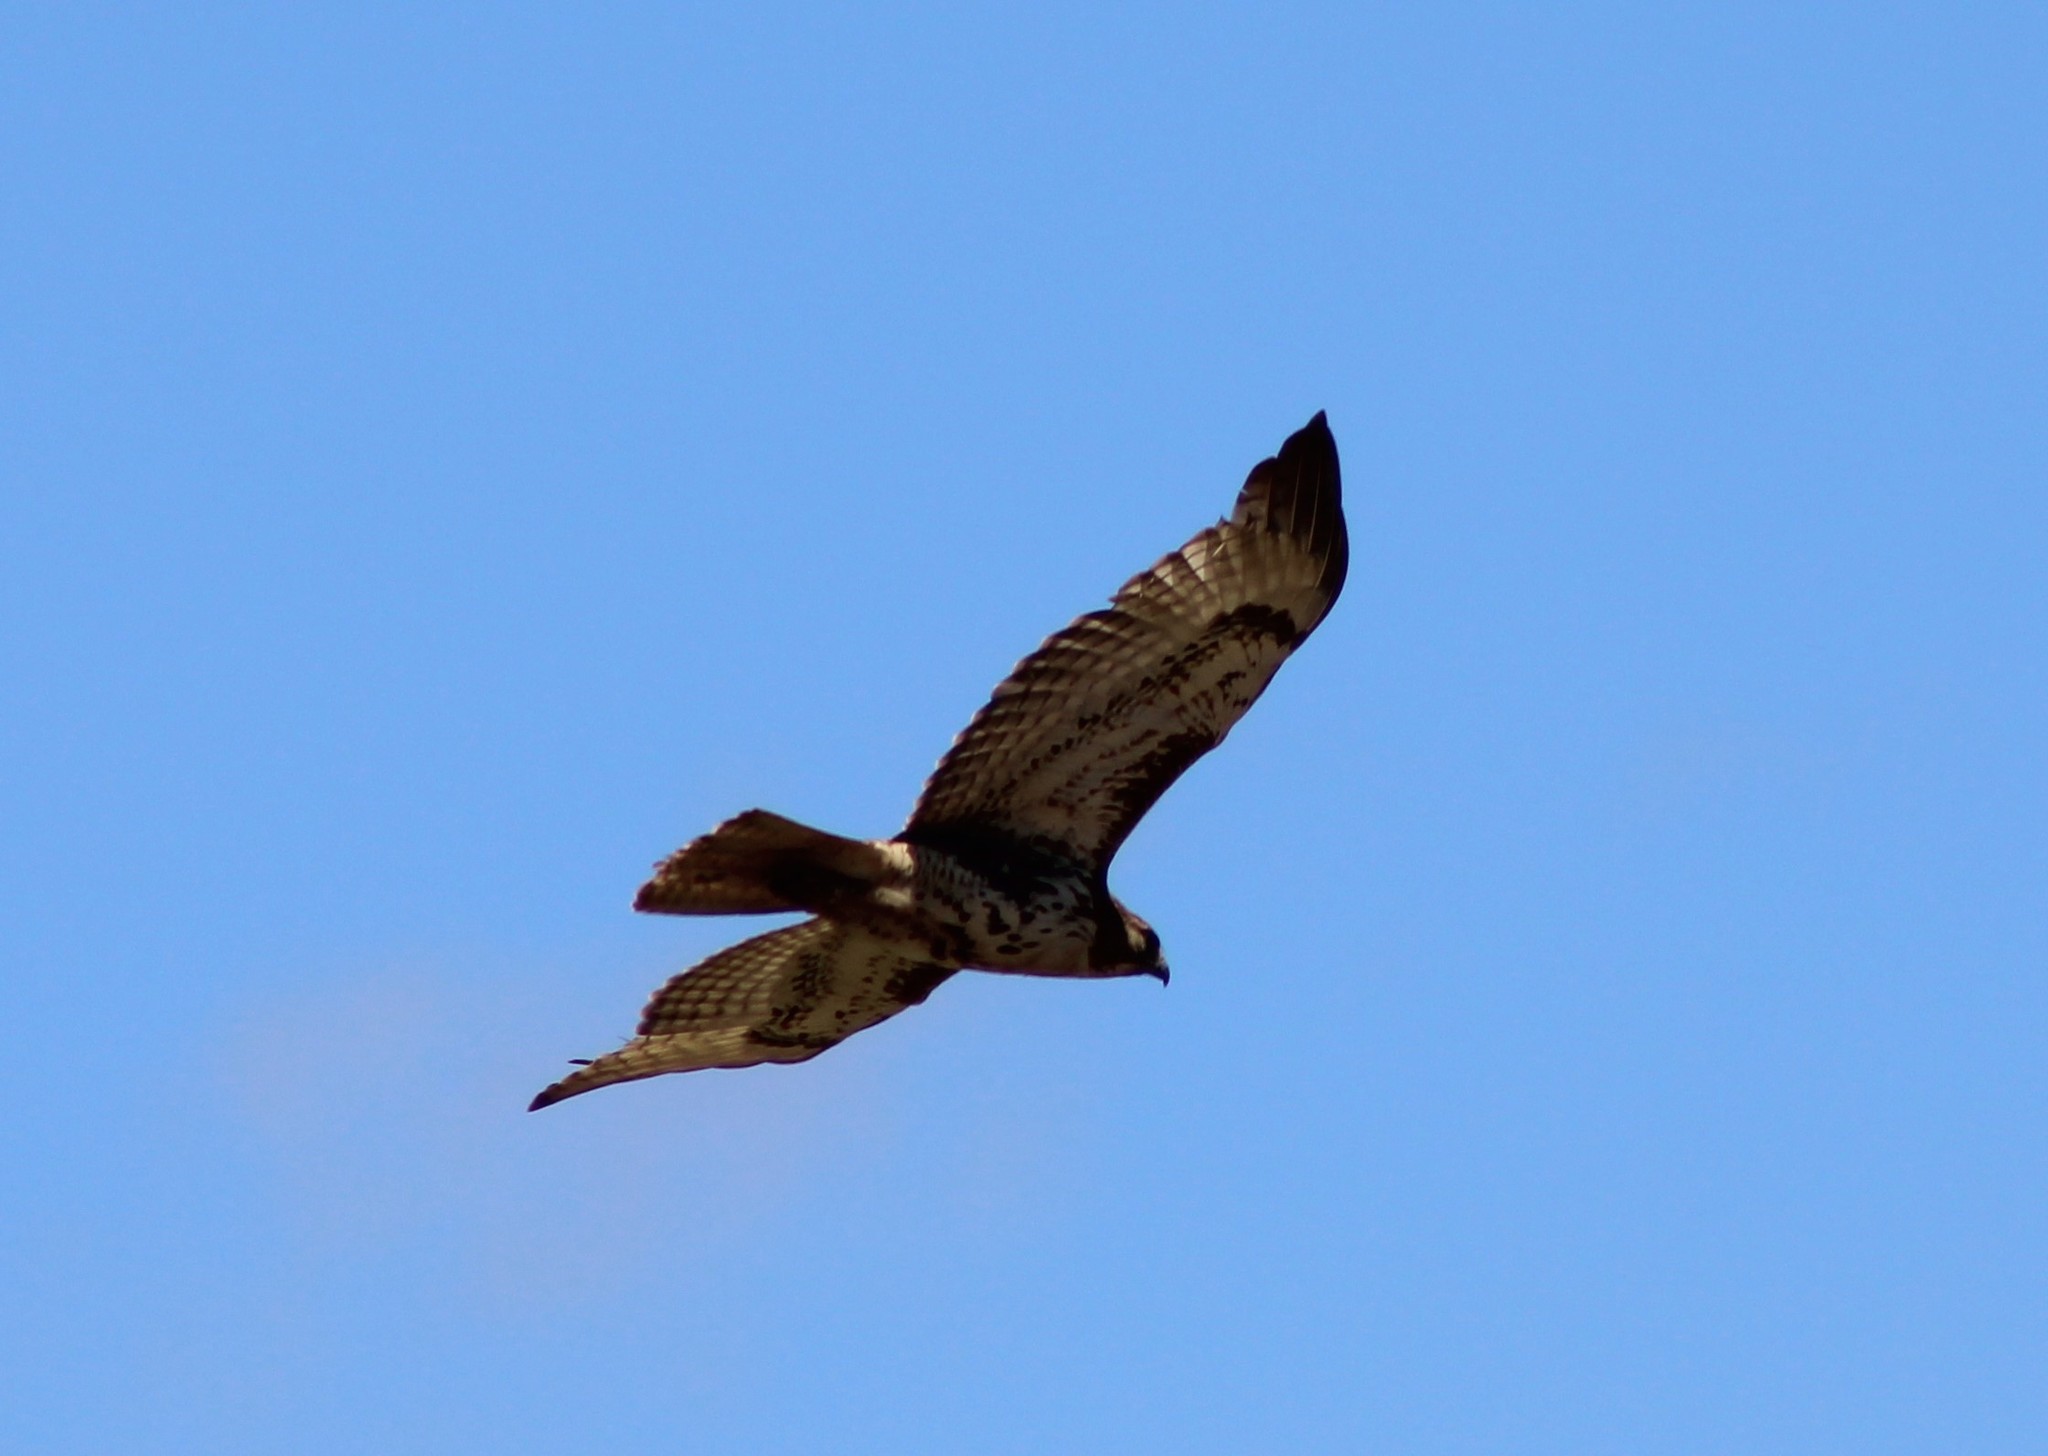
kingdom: Animalia
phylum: Chordata
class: Aves
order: Accipitriformes
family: Accipitridae
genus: Buteo
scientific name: Buteo jamaicensis
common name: Red-tailed hawk
